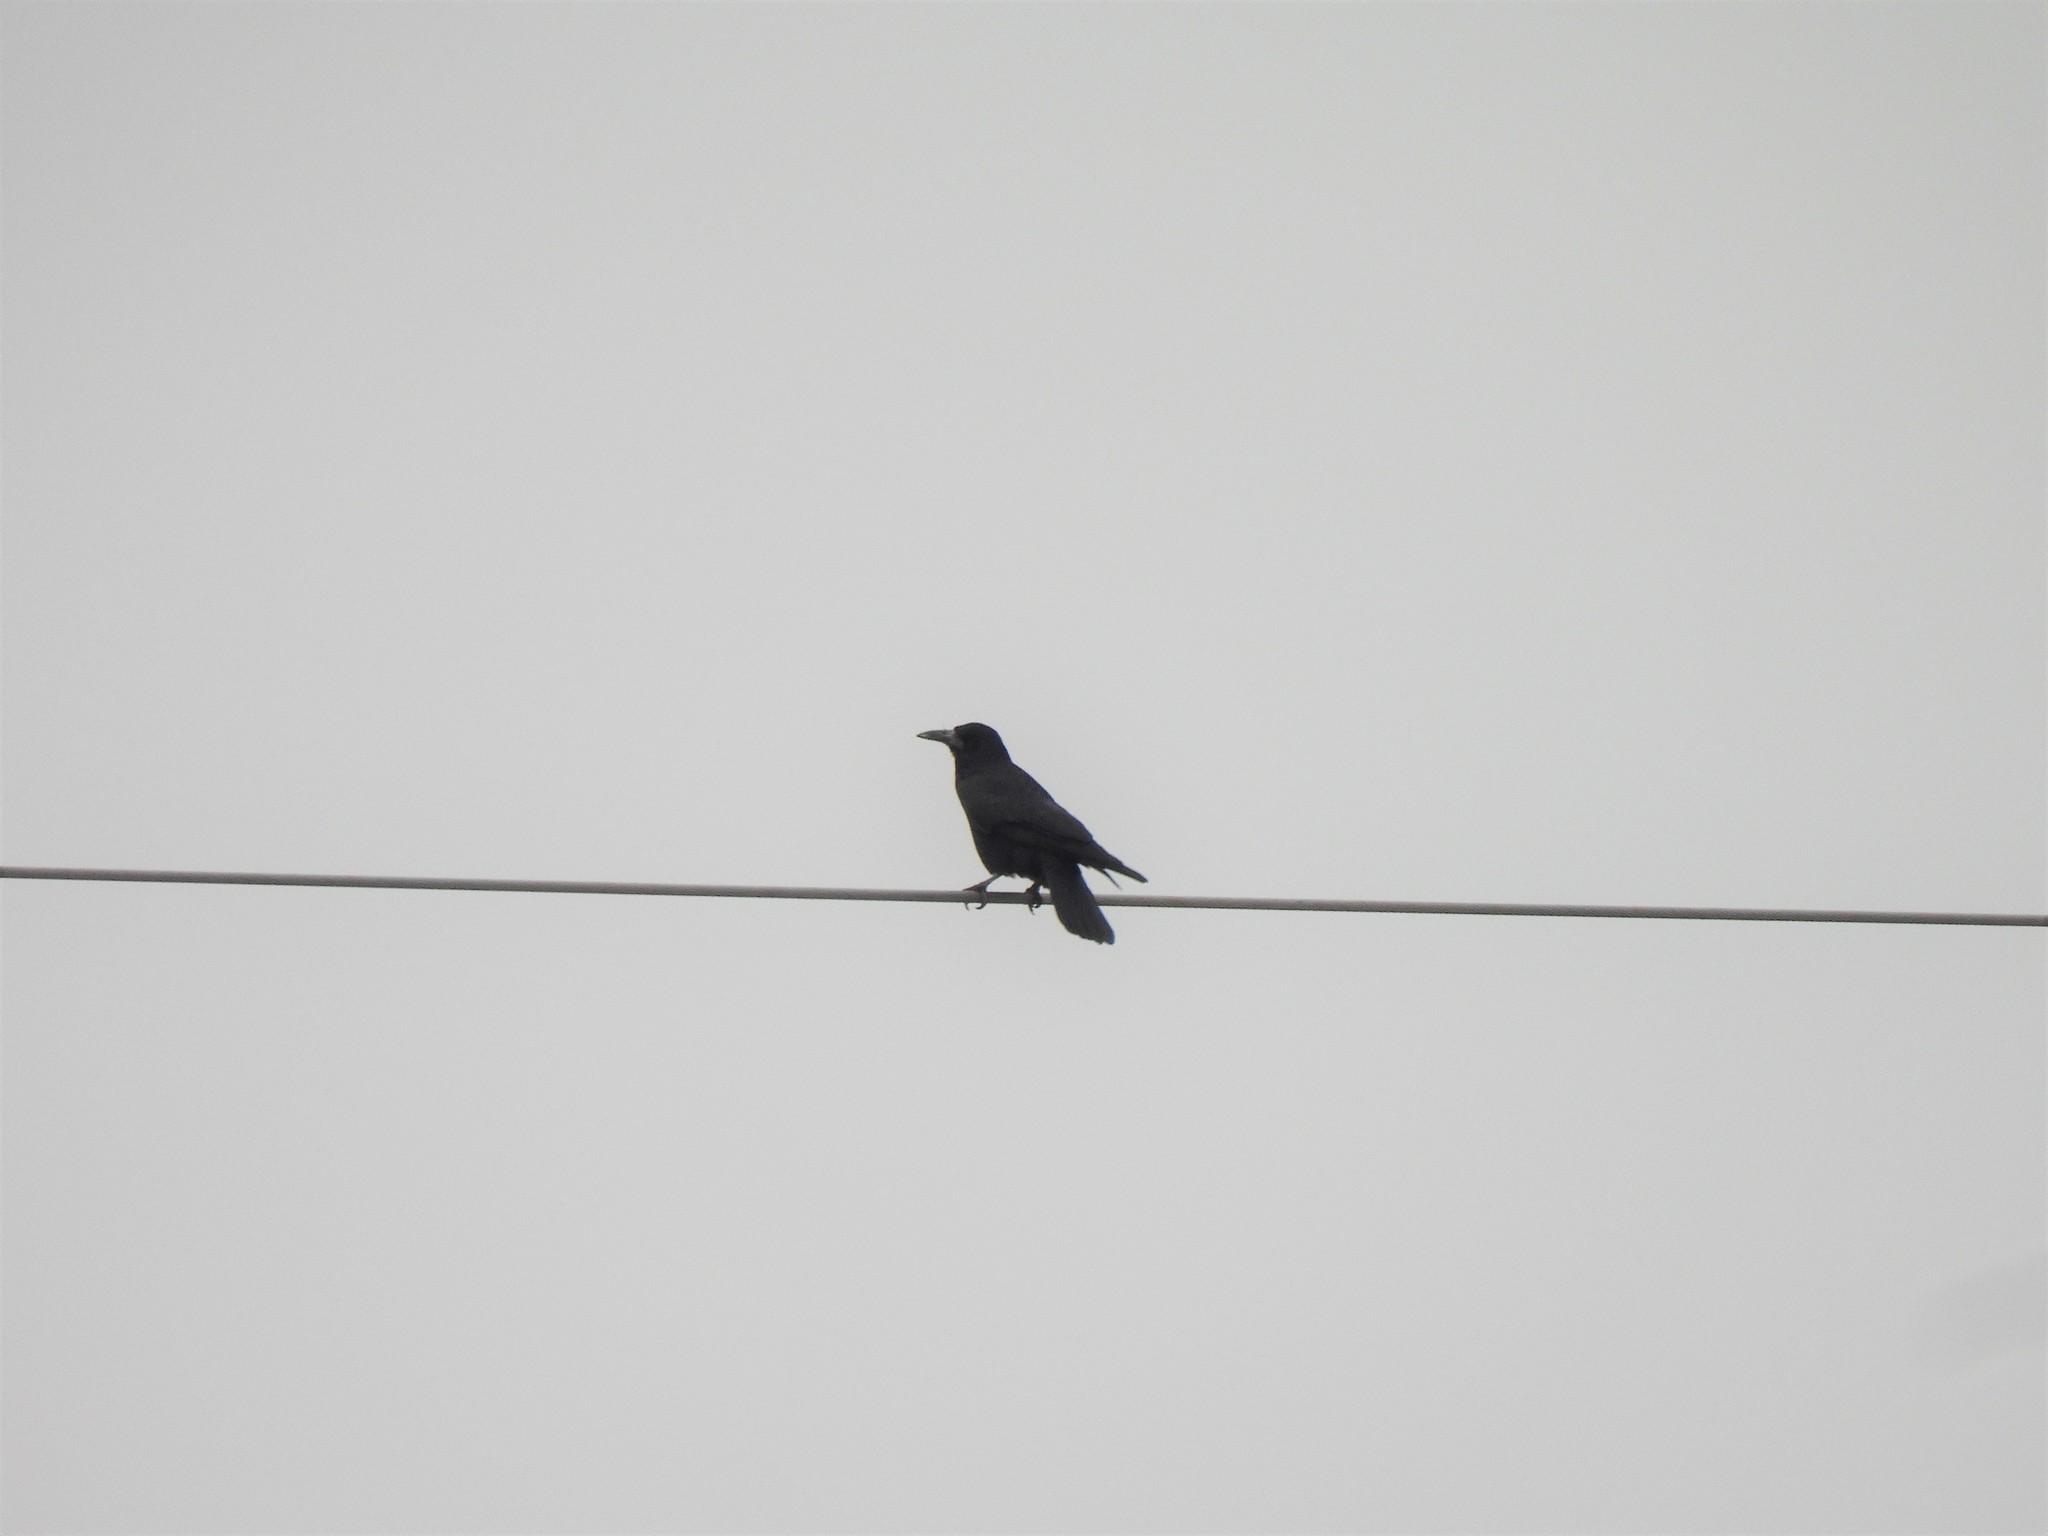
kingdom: Animalia
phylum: Chordata
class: Aves
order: Passeriformes
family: Corvidae
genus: Corvus
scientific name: Corvus frugilegus
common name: Rook
